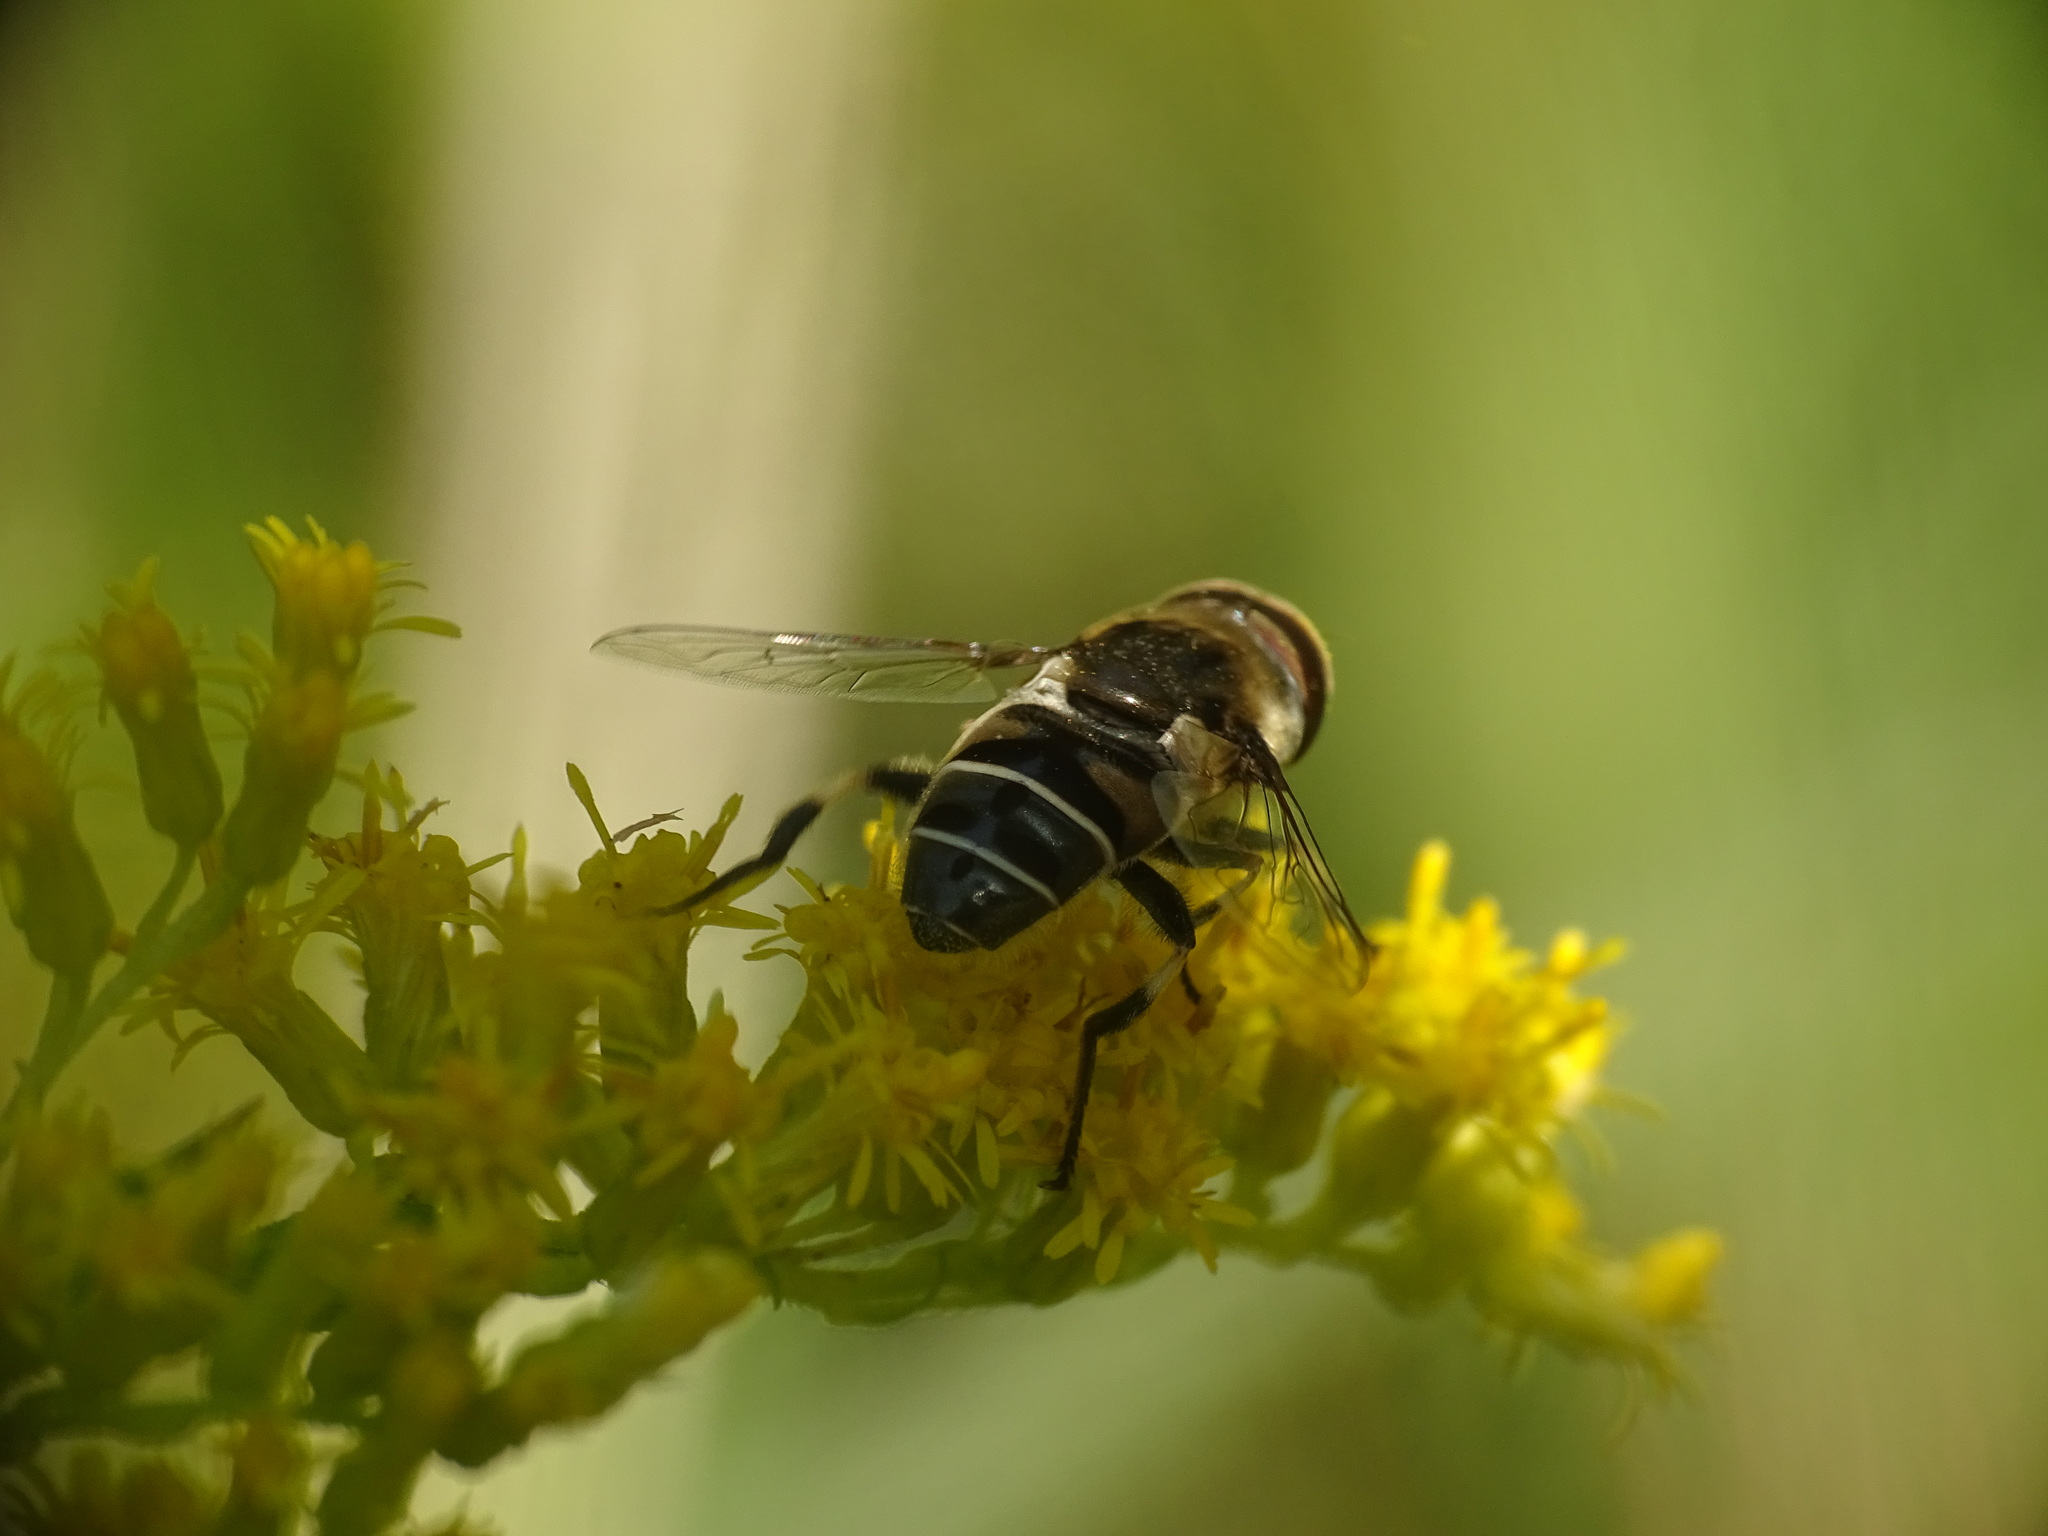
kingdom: Animalia
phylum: Arthropoda
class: Insecta
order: Diptera
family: Syrphidae
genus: Eristalis
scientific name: Eristalis dimidiata
